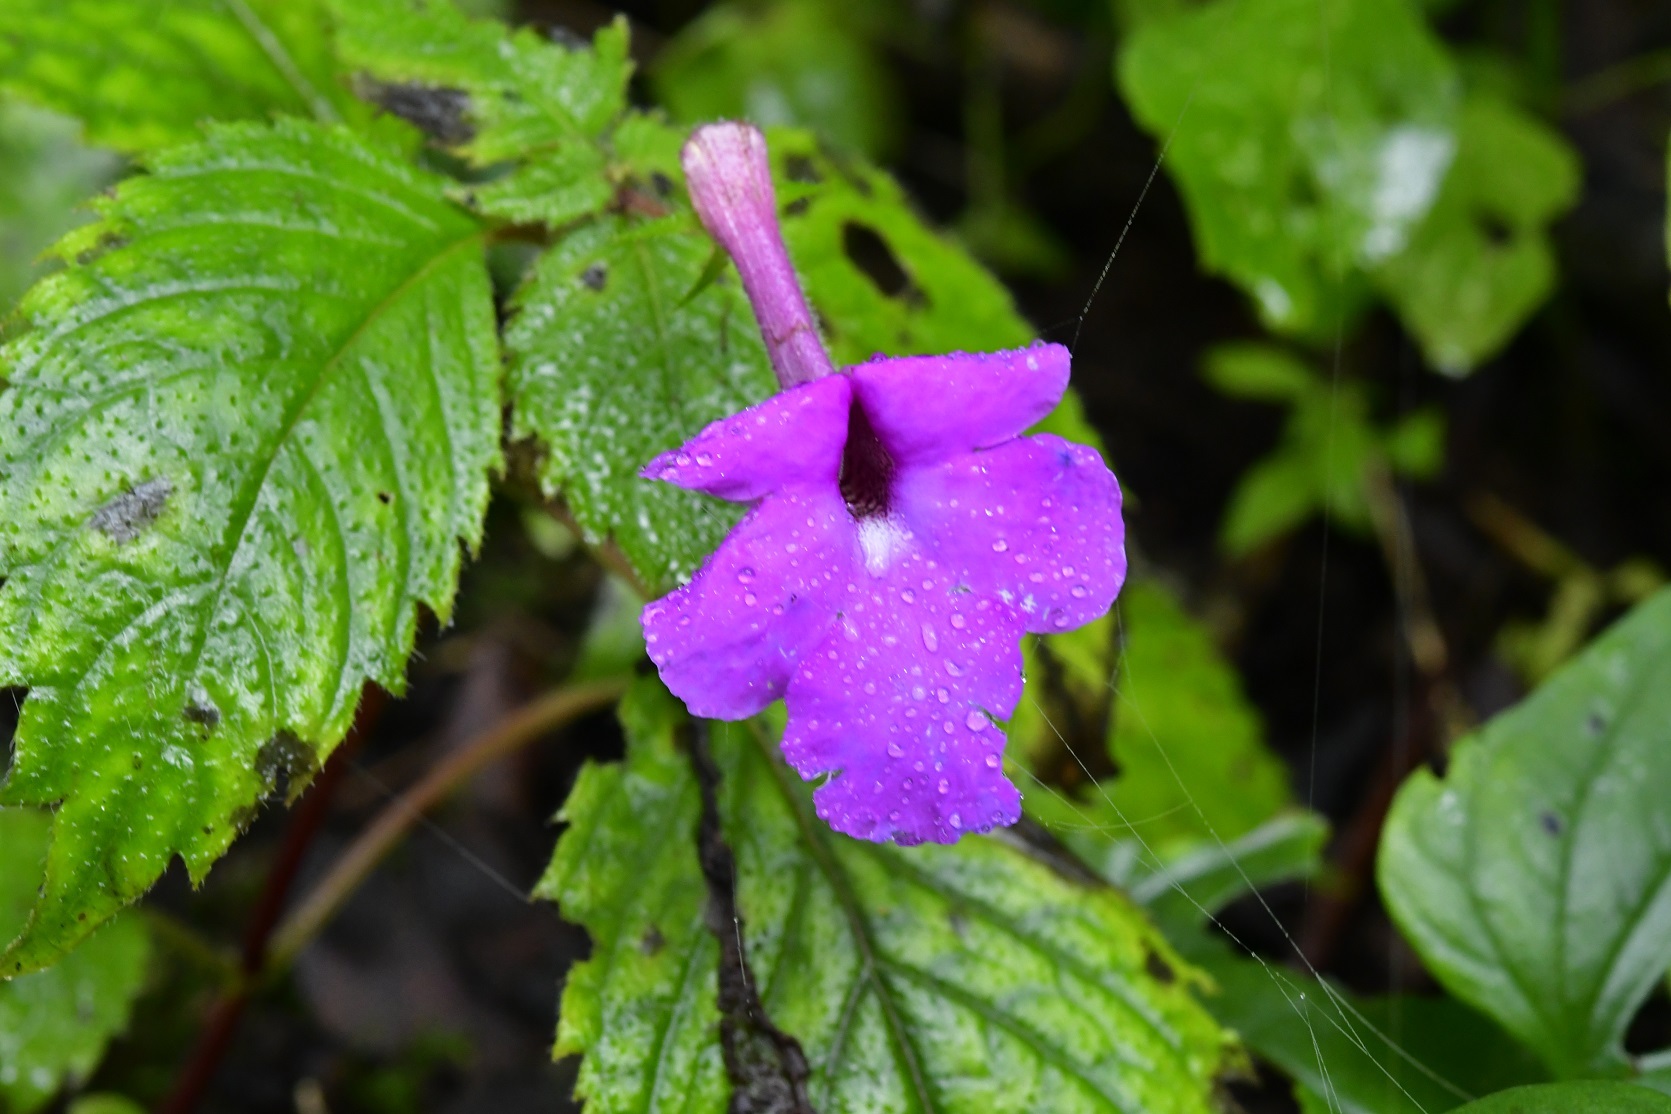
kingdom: Plantae
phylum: Tracheophyta
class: Magnoliopsida
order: Lamiales
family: Gesneriaceae
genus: Achimenes
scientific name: Achimenes grandiflora
